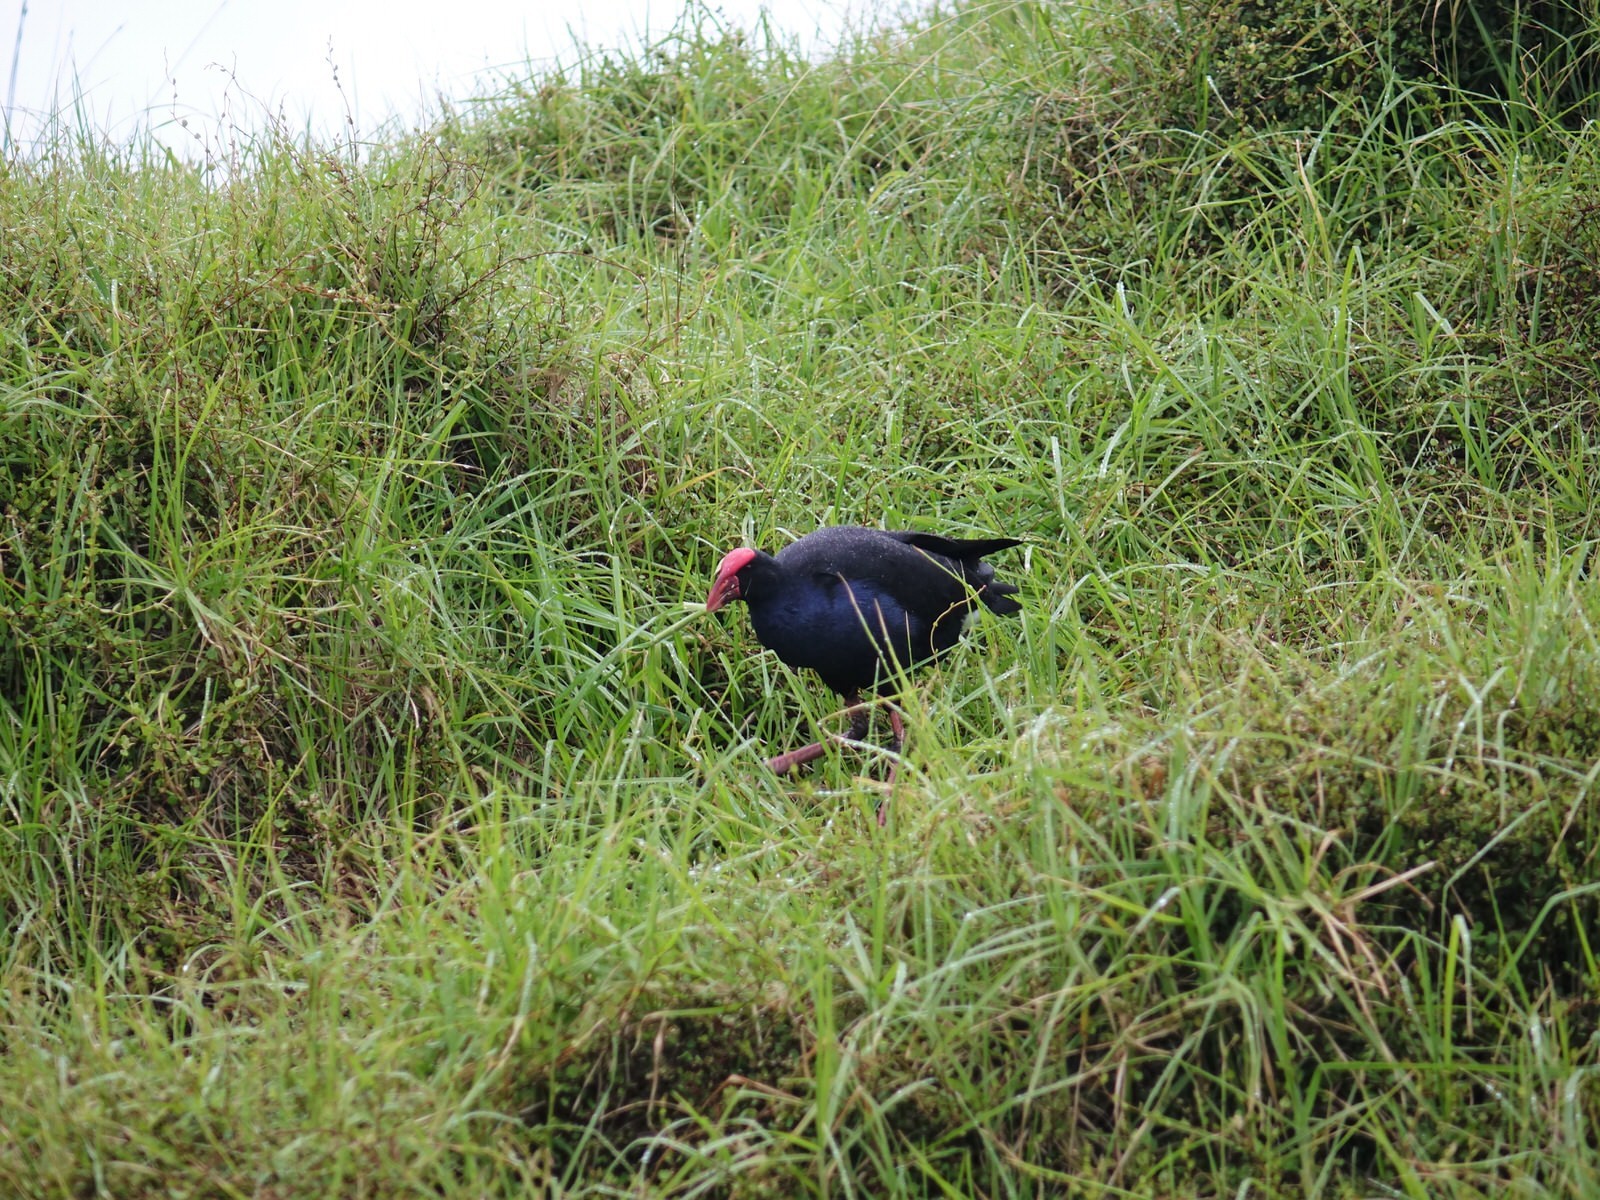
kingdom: Animalia
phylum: Chordata
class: Aves
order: Gruiformes
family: Rallidae
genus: Porphyrio
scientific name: Porphyrio melanotus
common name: Australasian swamphen
